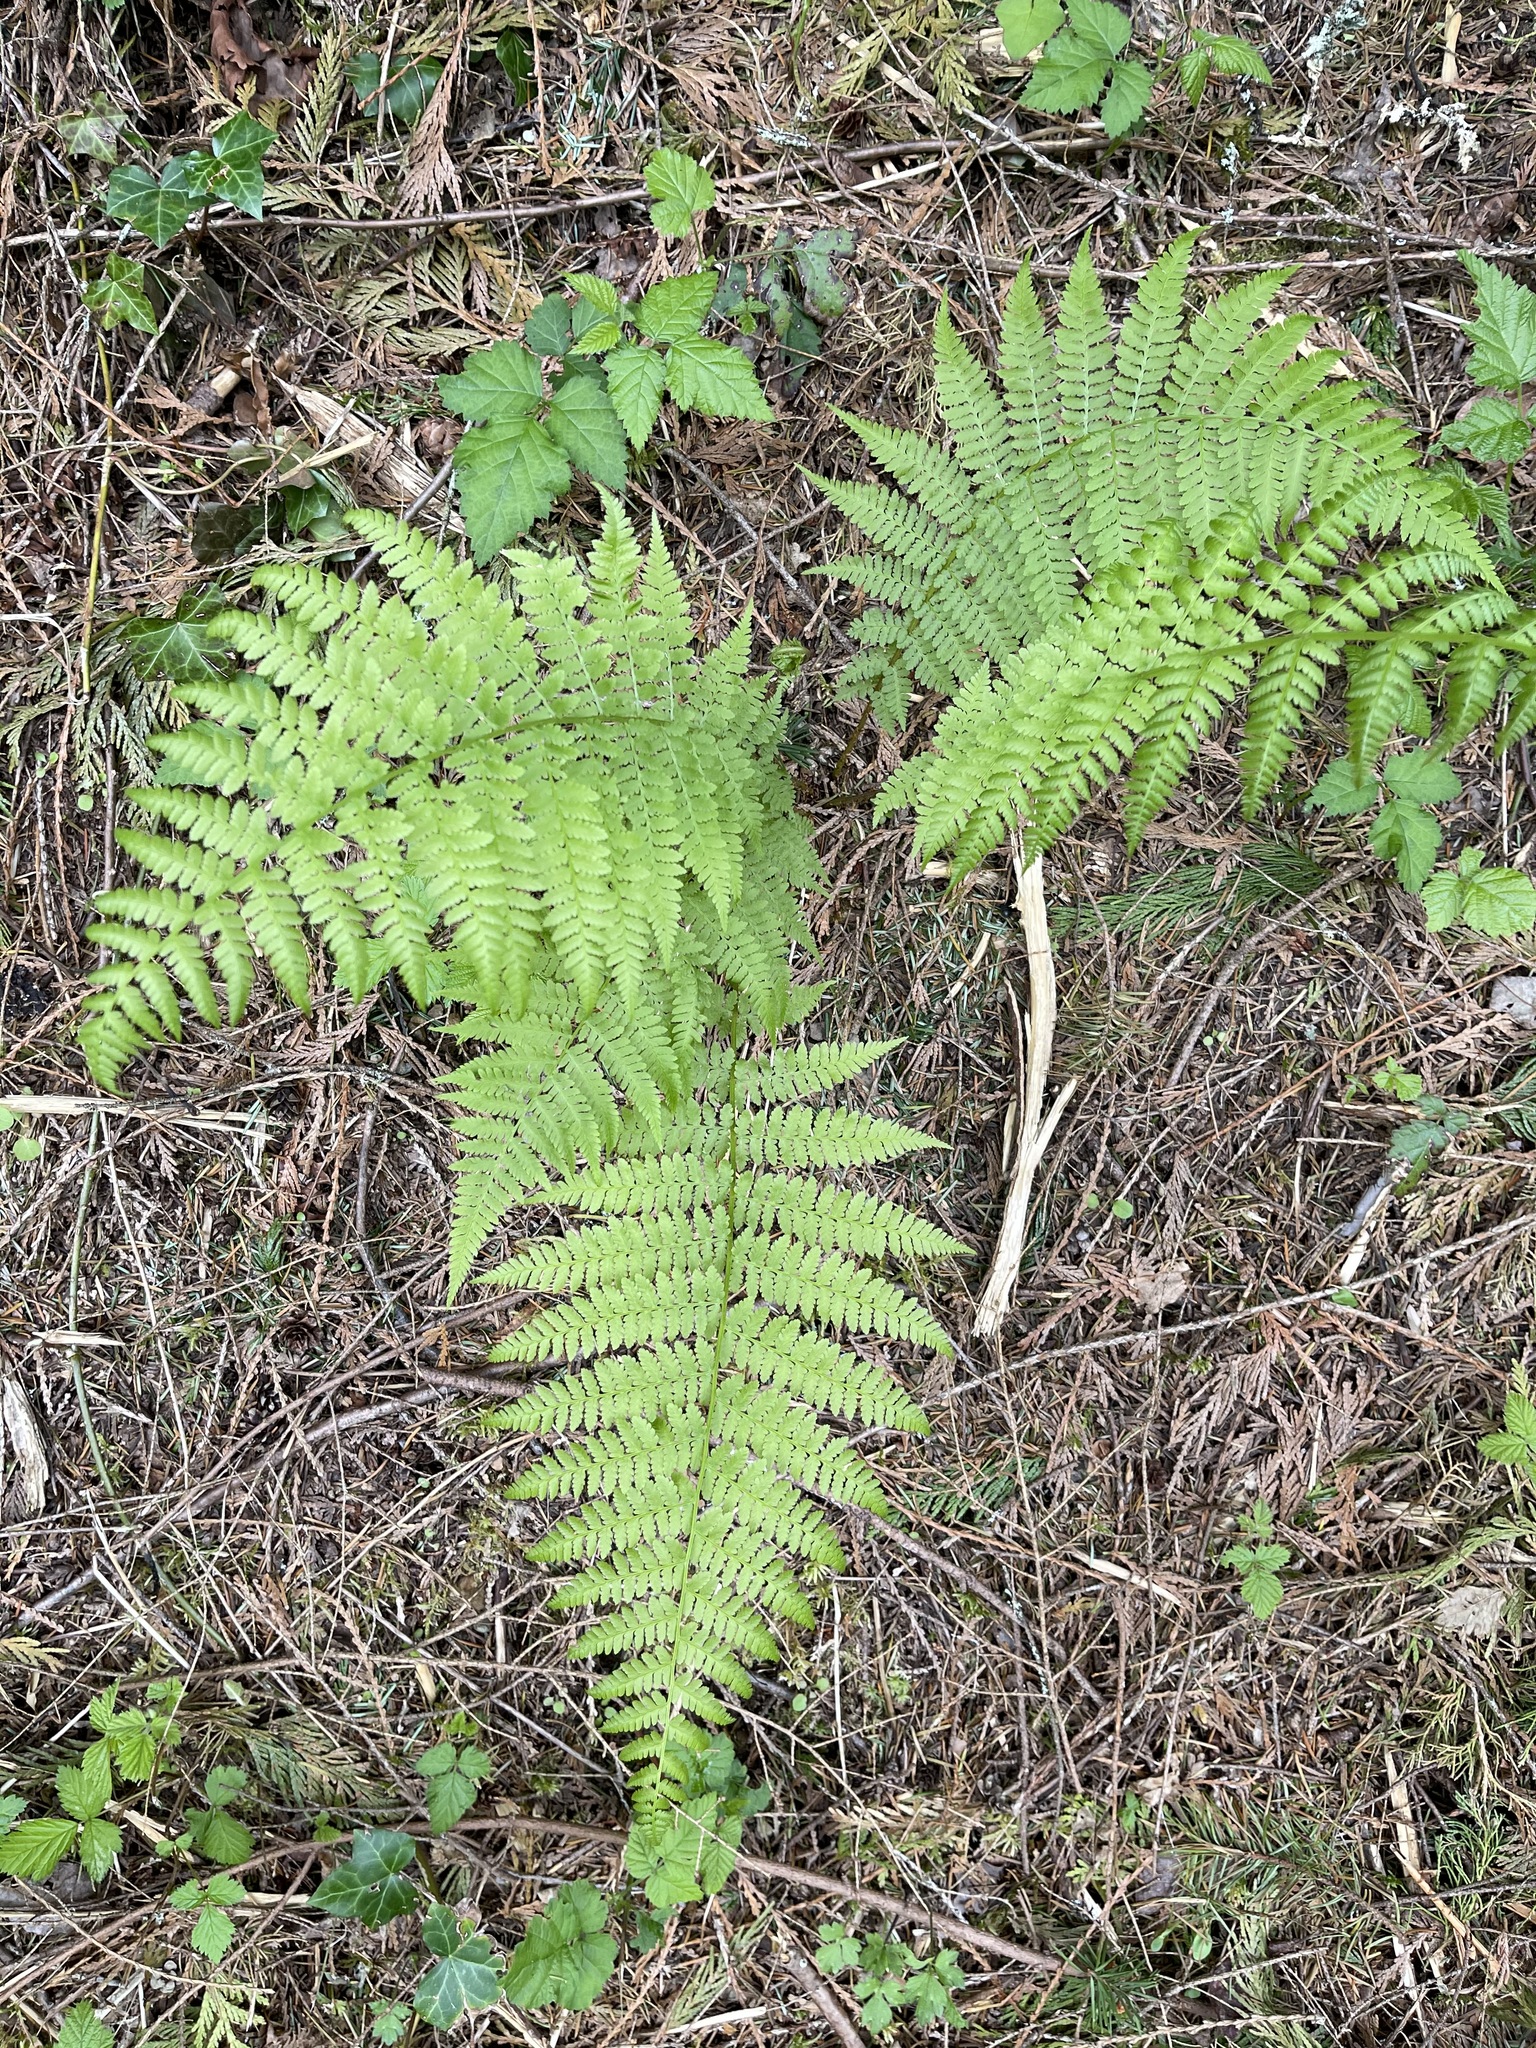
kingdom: Plantae
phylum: Tracheophyta
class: Polypodiopsida
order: Polypodiales
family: Athyriaceae
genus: Athyrium
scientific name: Athyrium filix-femina
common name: Lady fern
